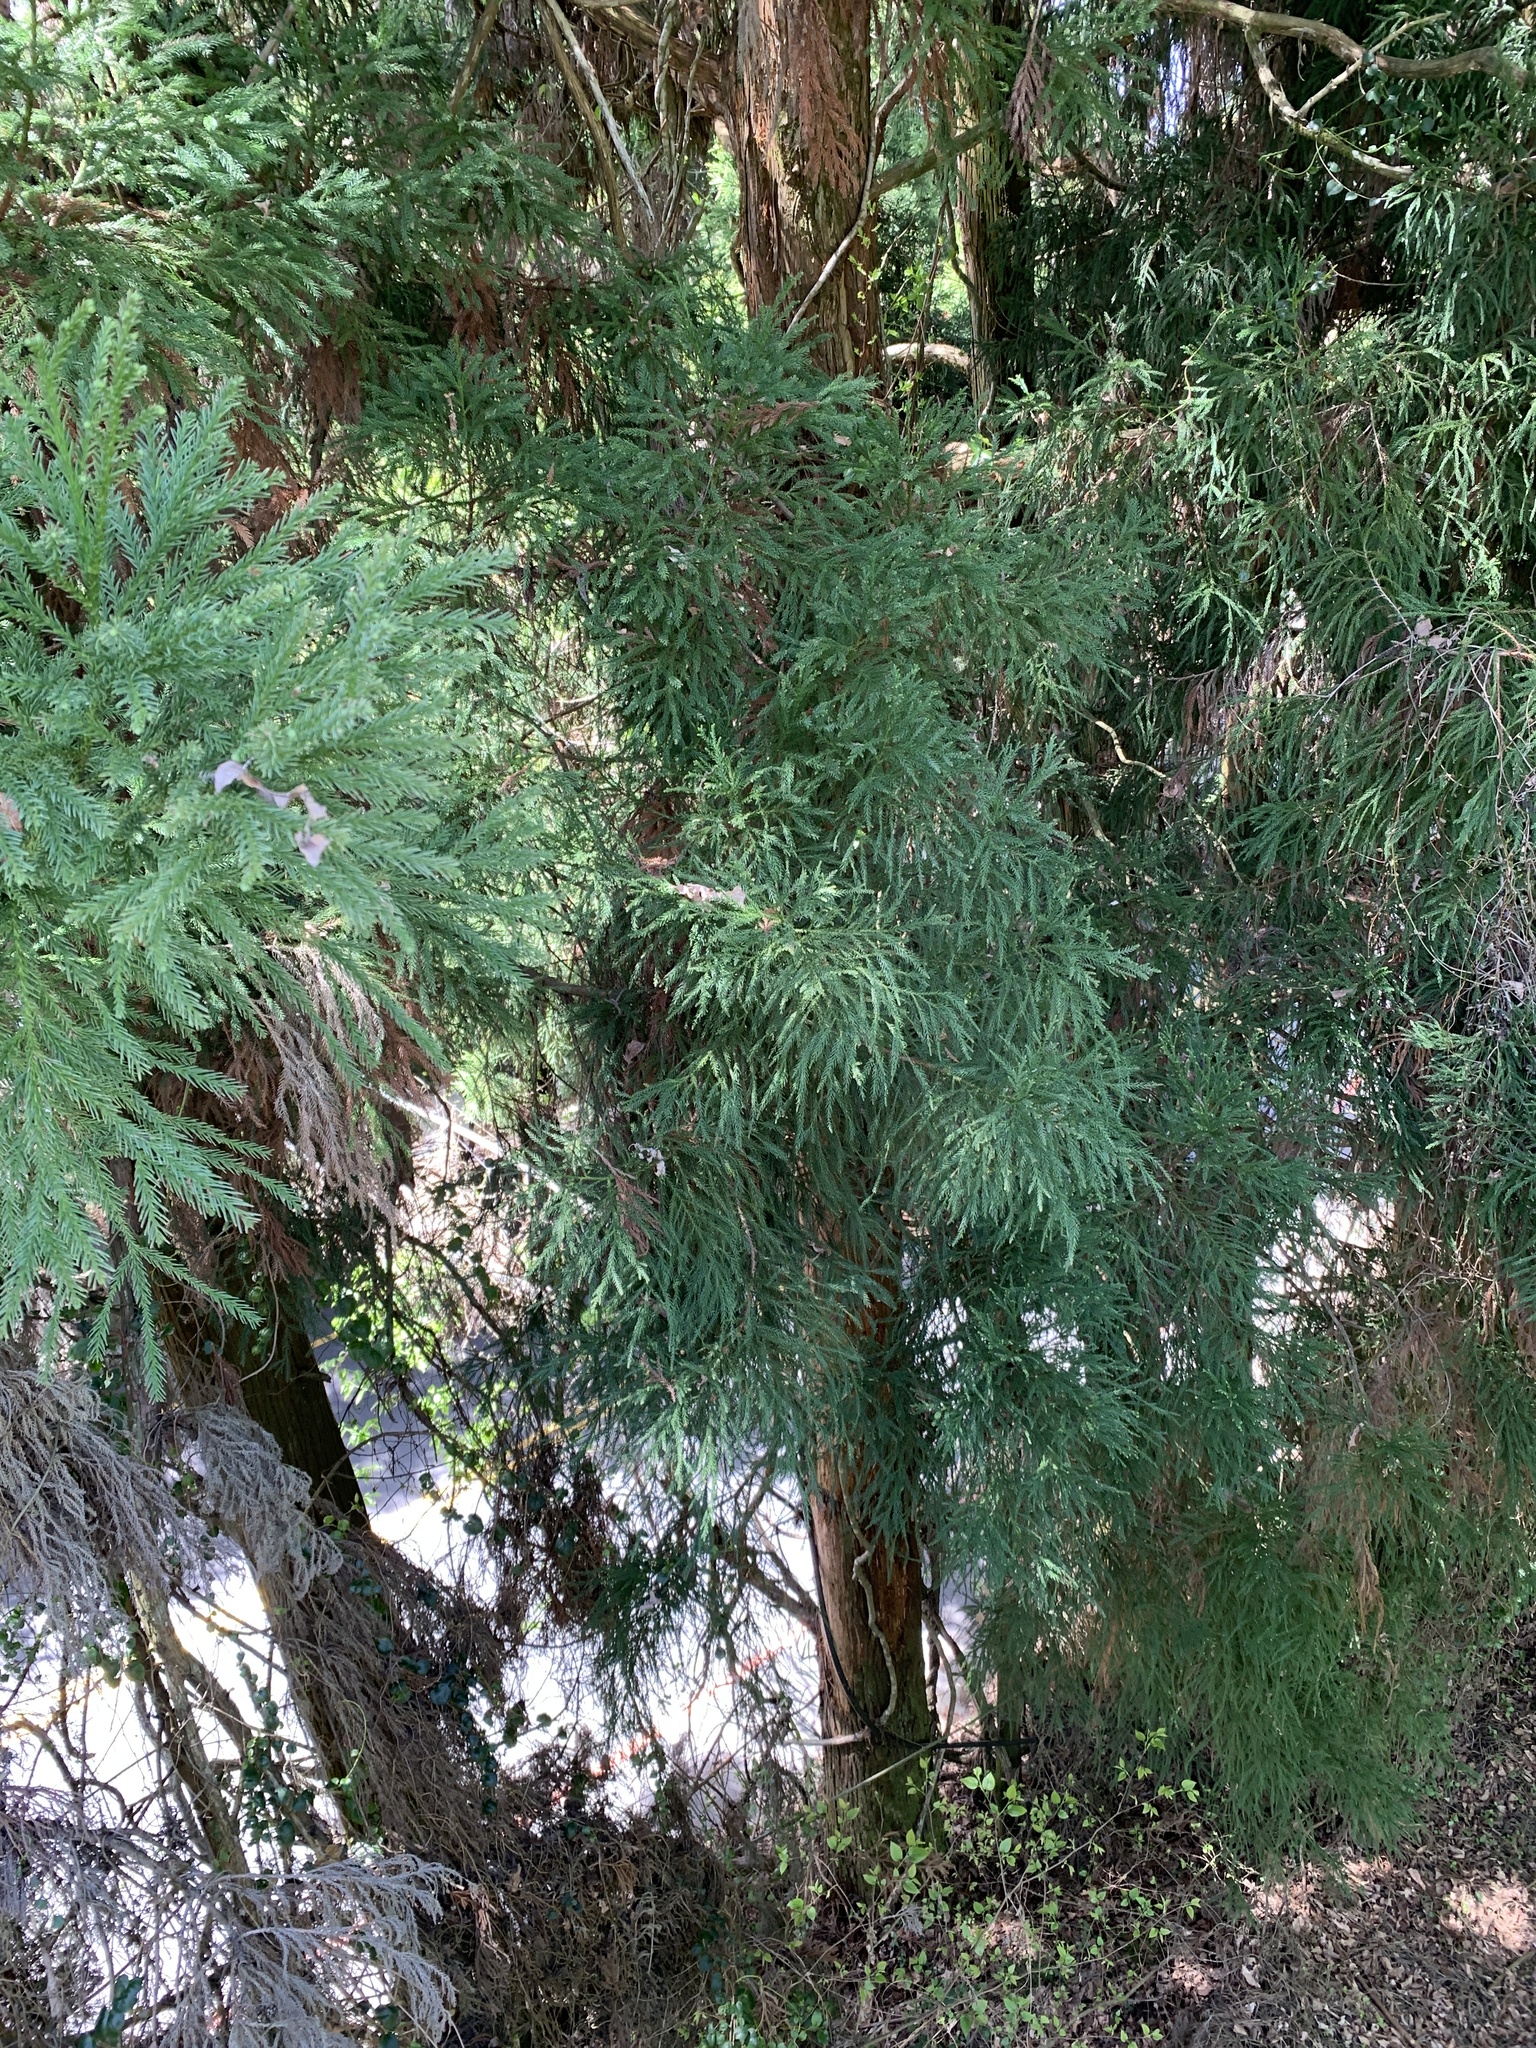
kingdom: Plantae
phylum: Tracheophyta
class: Pinopsida
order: Pinales
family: Cupressaceae
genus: Cryptomeria
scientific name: Cryptomeria japonica
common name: Japanese cedar
